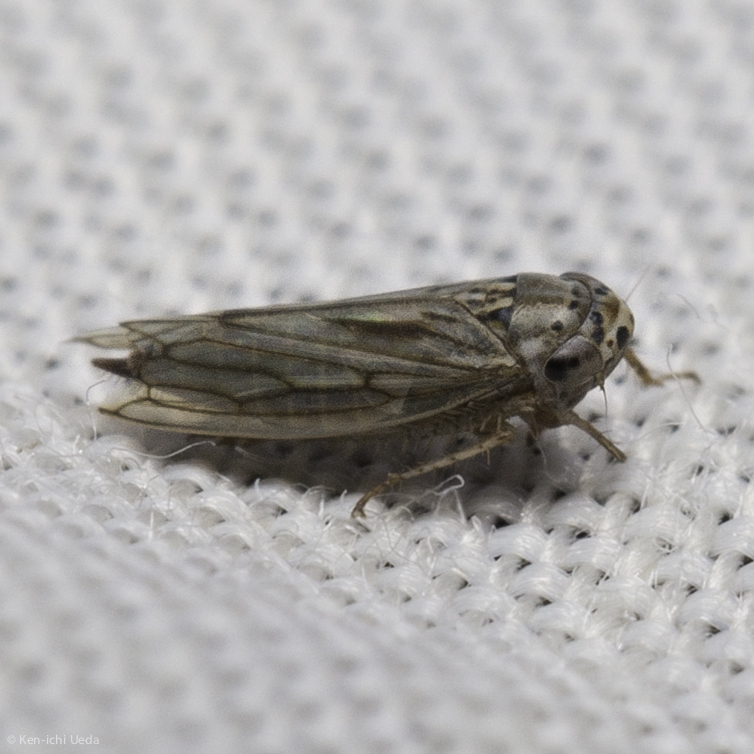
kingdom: Animalia
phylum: Arthropoda
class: Insecta
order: Hemiptera
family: Cicadellidae
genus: Exitianus
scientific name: Exitianus exitiosus
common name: Gray lawn leafhopper
